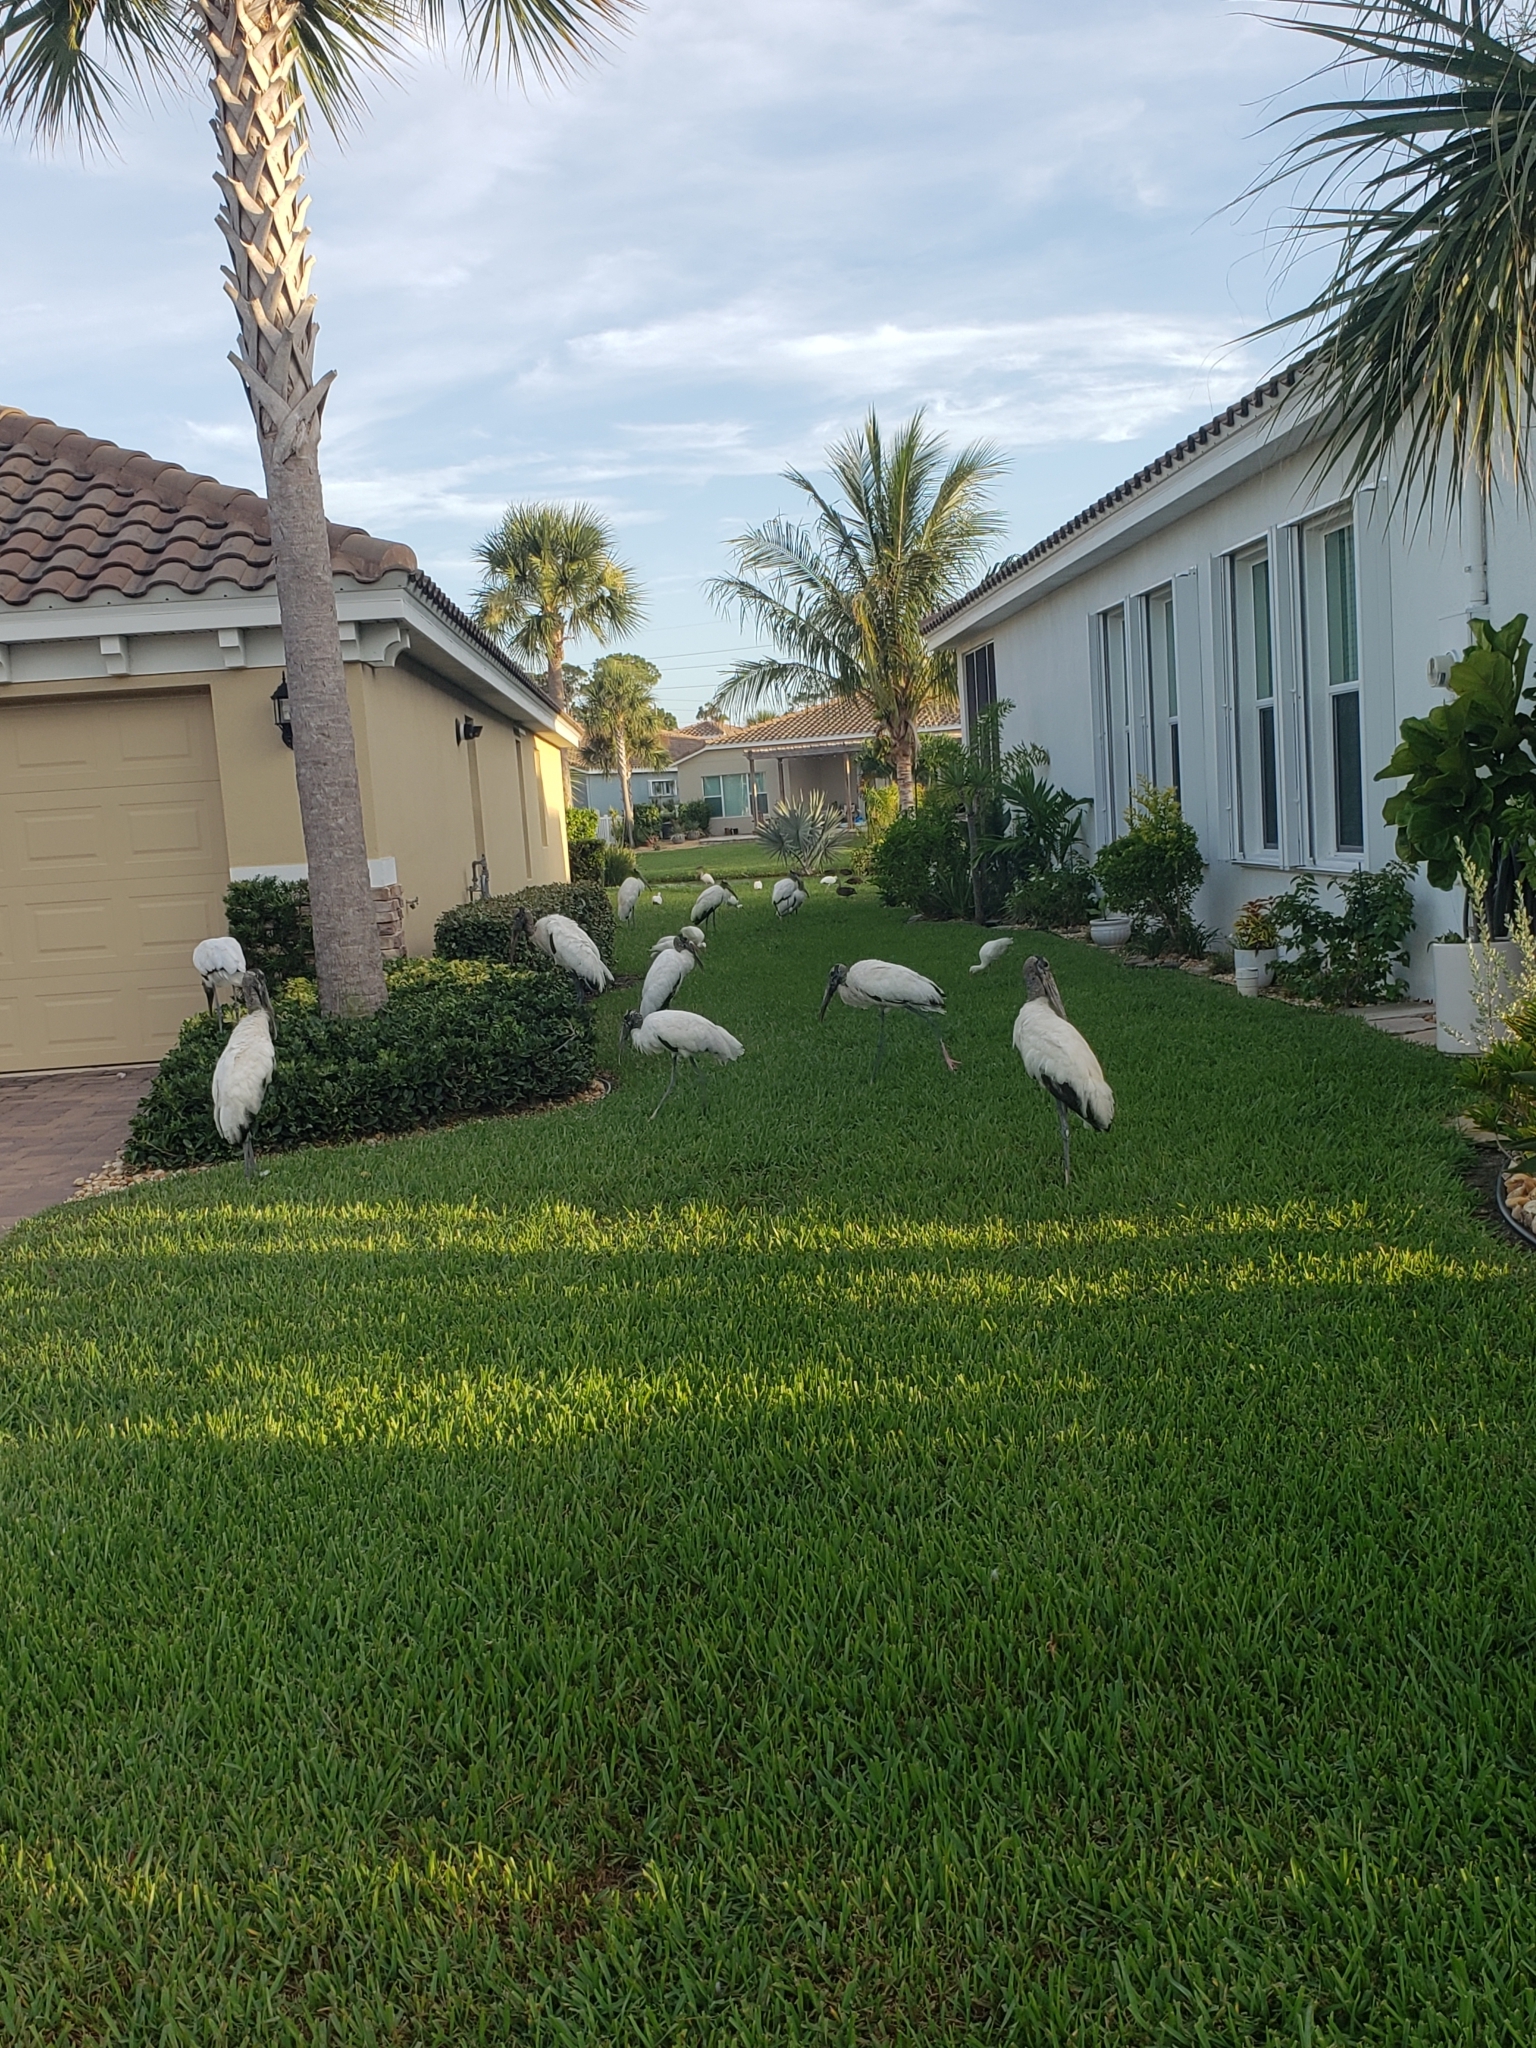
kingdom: Animalia
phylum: Chordata
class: Aves
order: Ciconiiformes
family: Ciconiidae
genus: Mycteria
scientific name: Mycteria americana
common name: Wood stork
